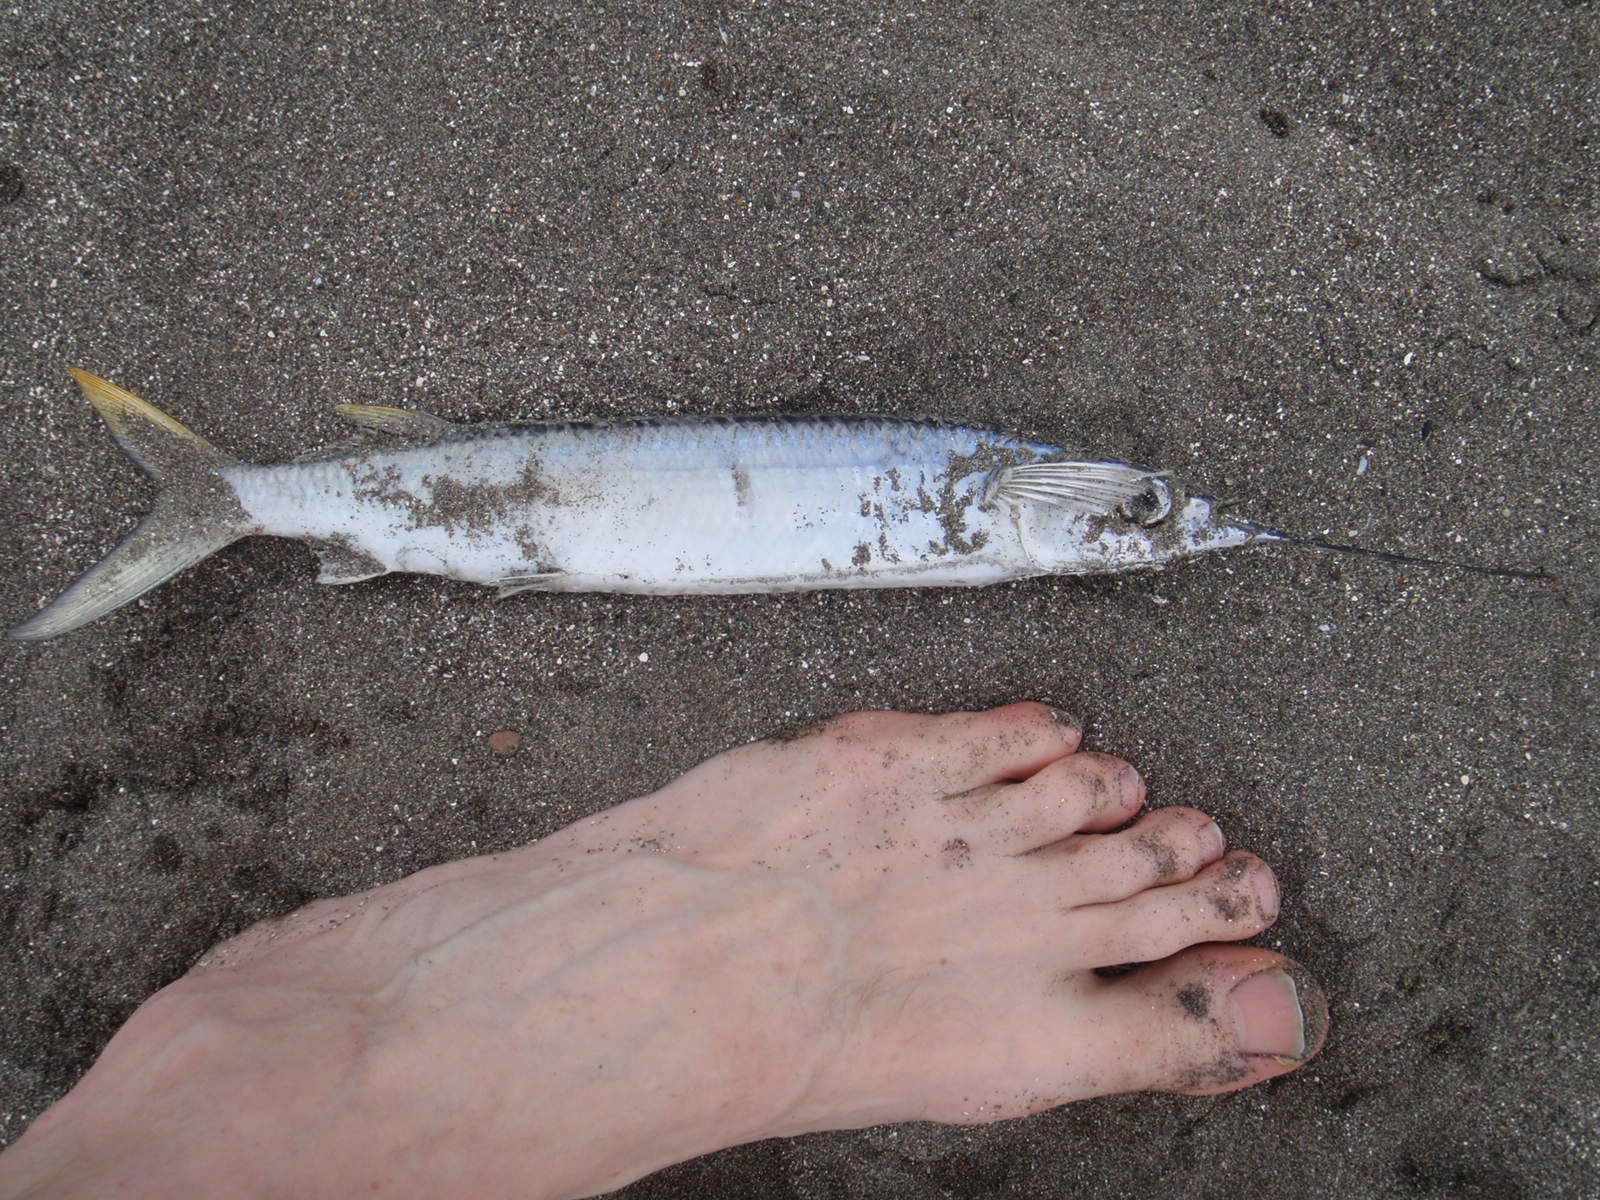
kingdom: Animalia
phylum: Chordata
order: Beloniformes
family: Hemiramphidae
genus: Hemiramphus
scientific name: Hemiramphus brasiliensis
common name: Ballyhoo
